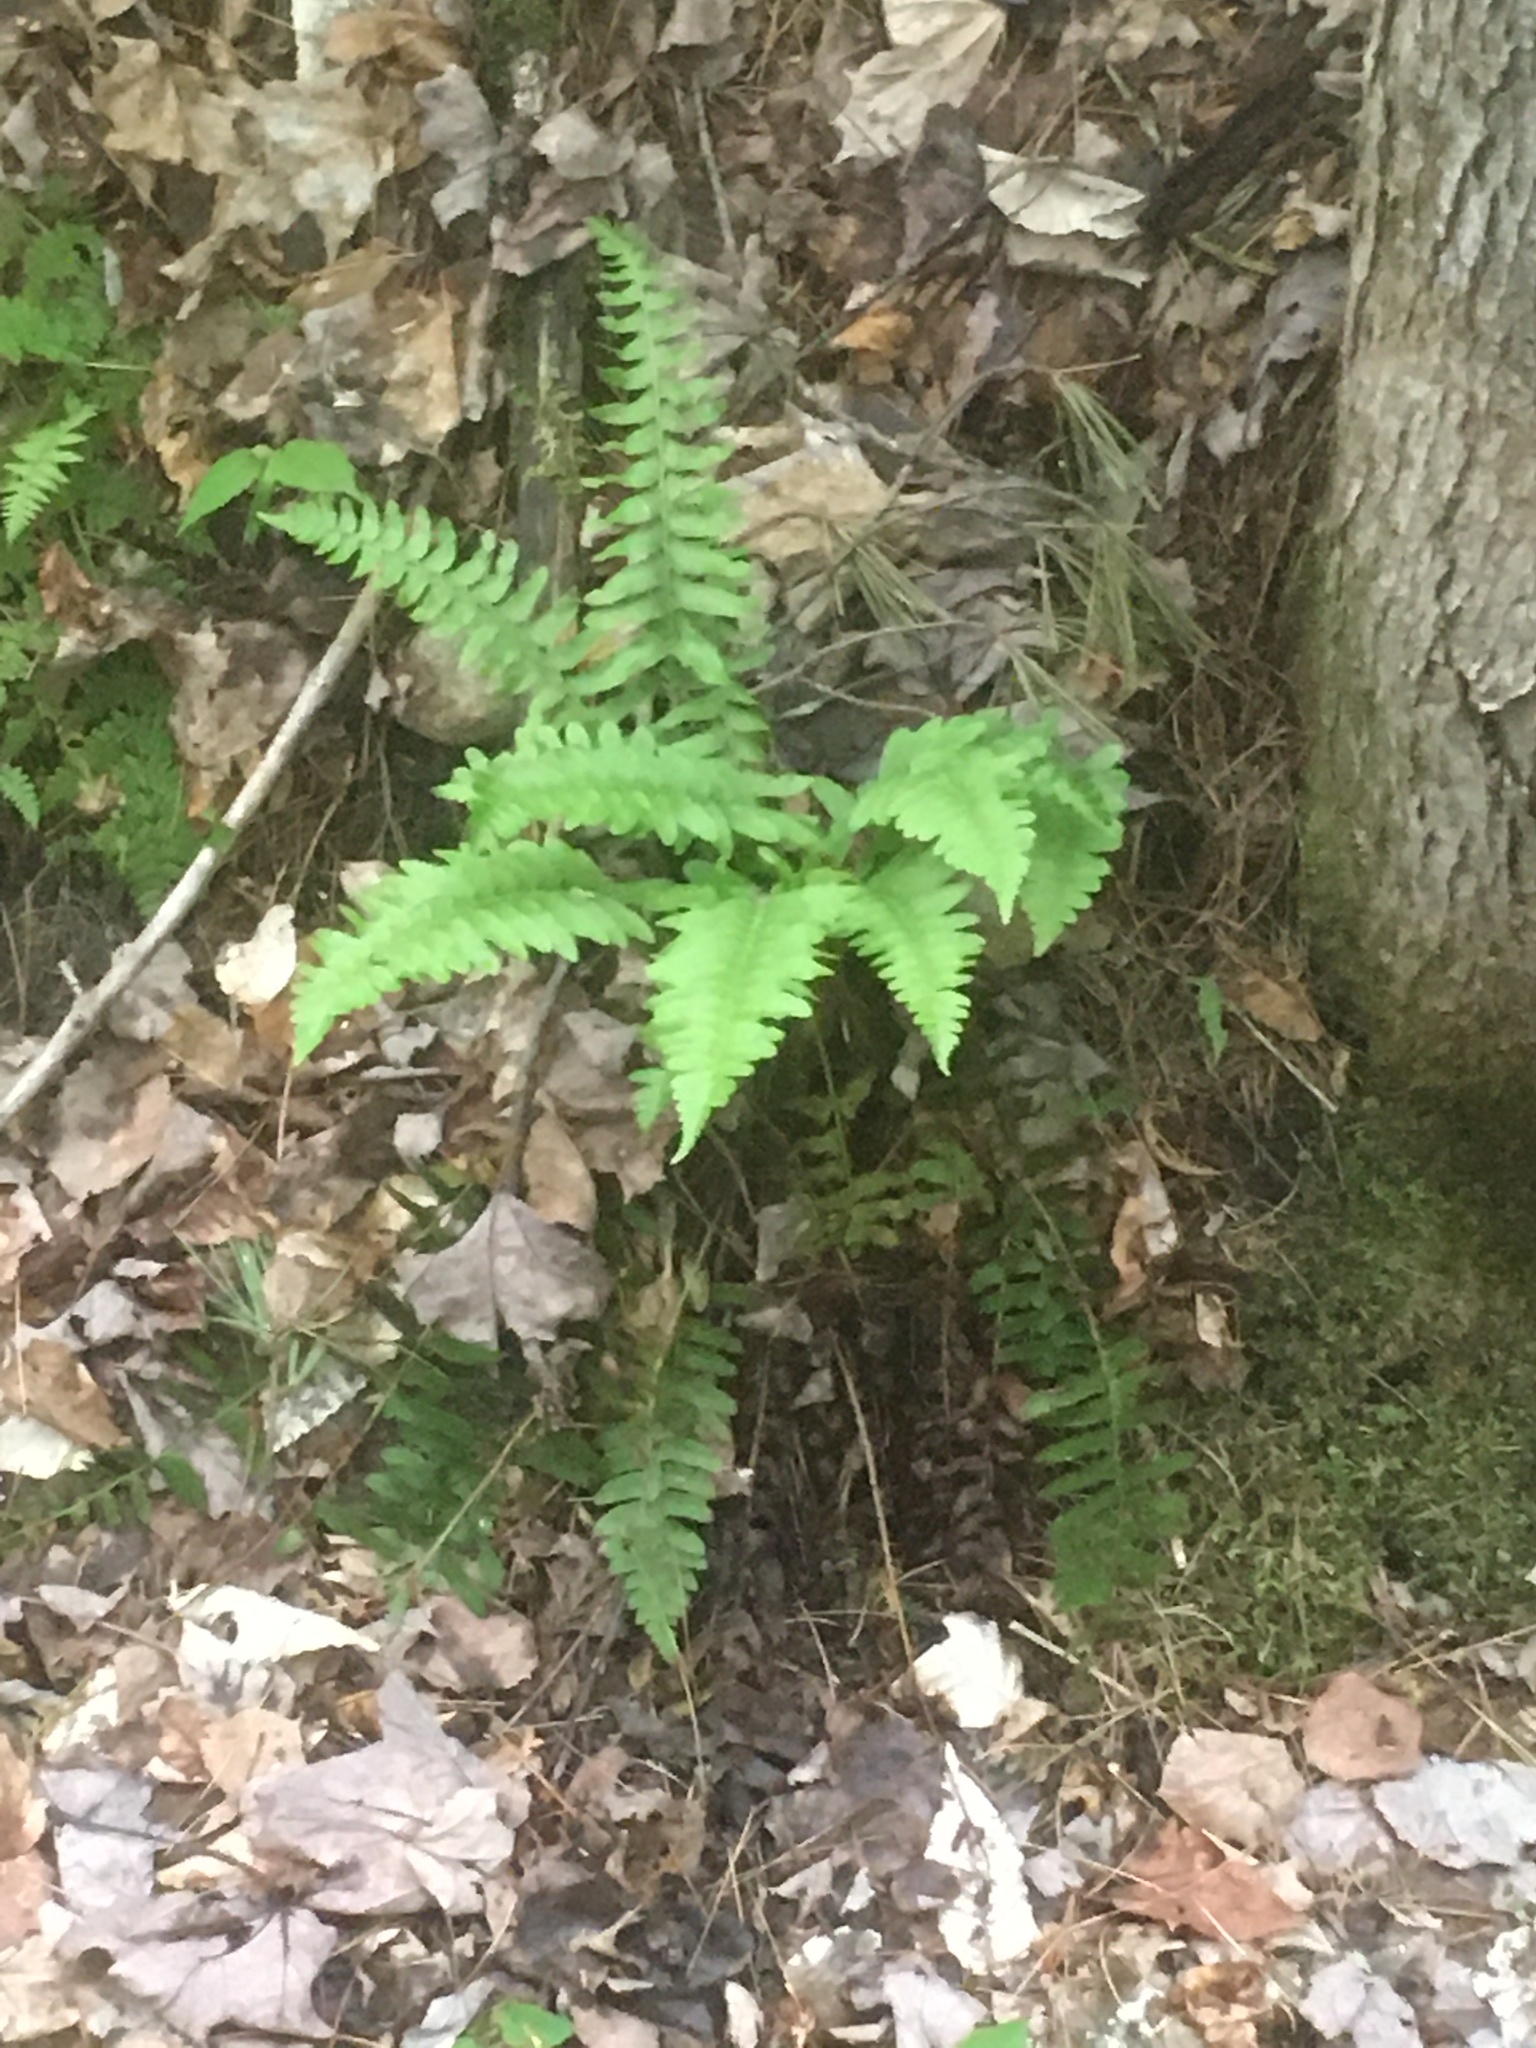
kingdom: Plantae
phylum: Tracheophyta
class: Polypodiopsida
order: Polypodiales
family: Dryopteridaceae
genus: Polystichum
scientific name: Polystichum acrostichoides
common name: Christmas fern
